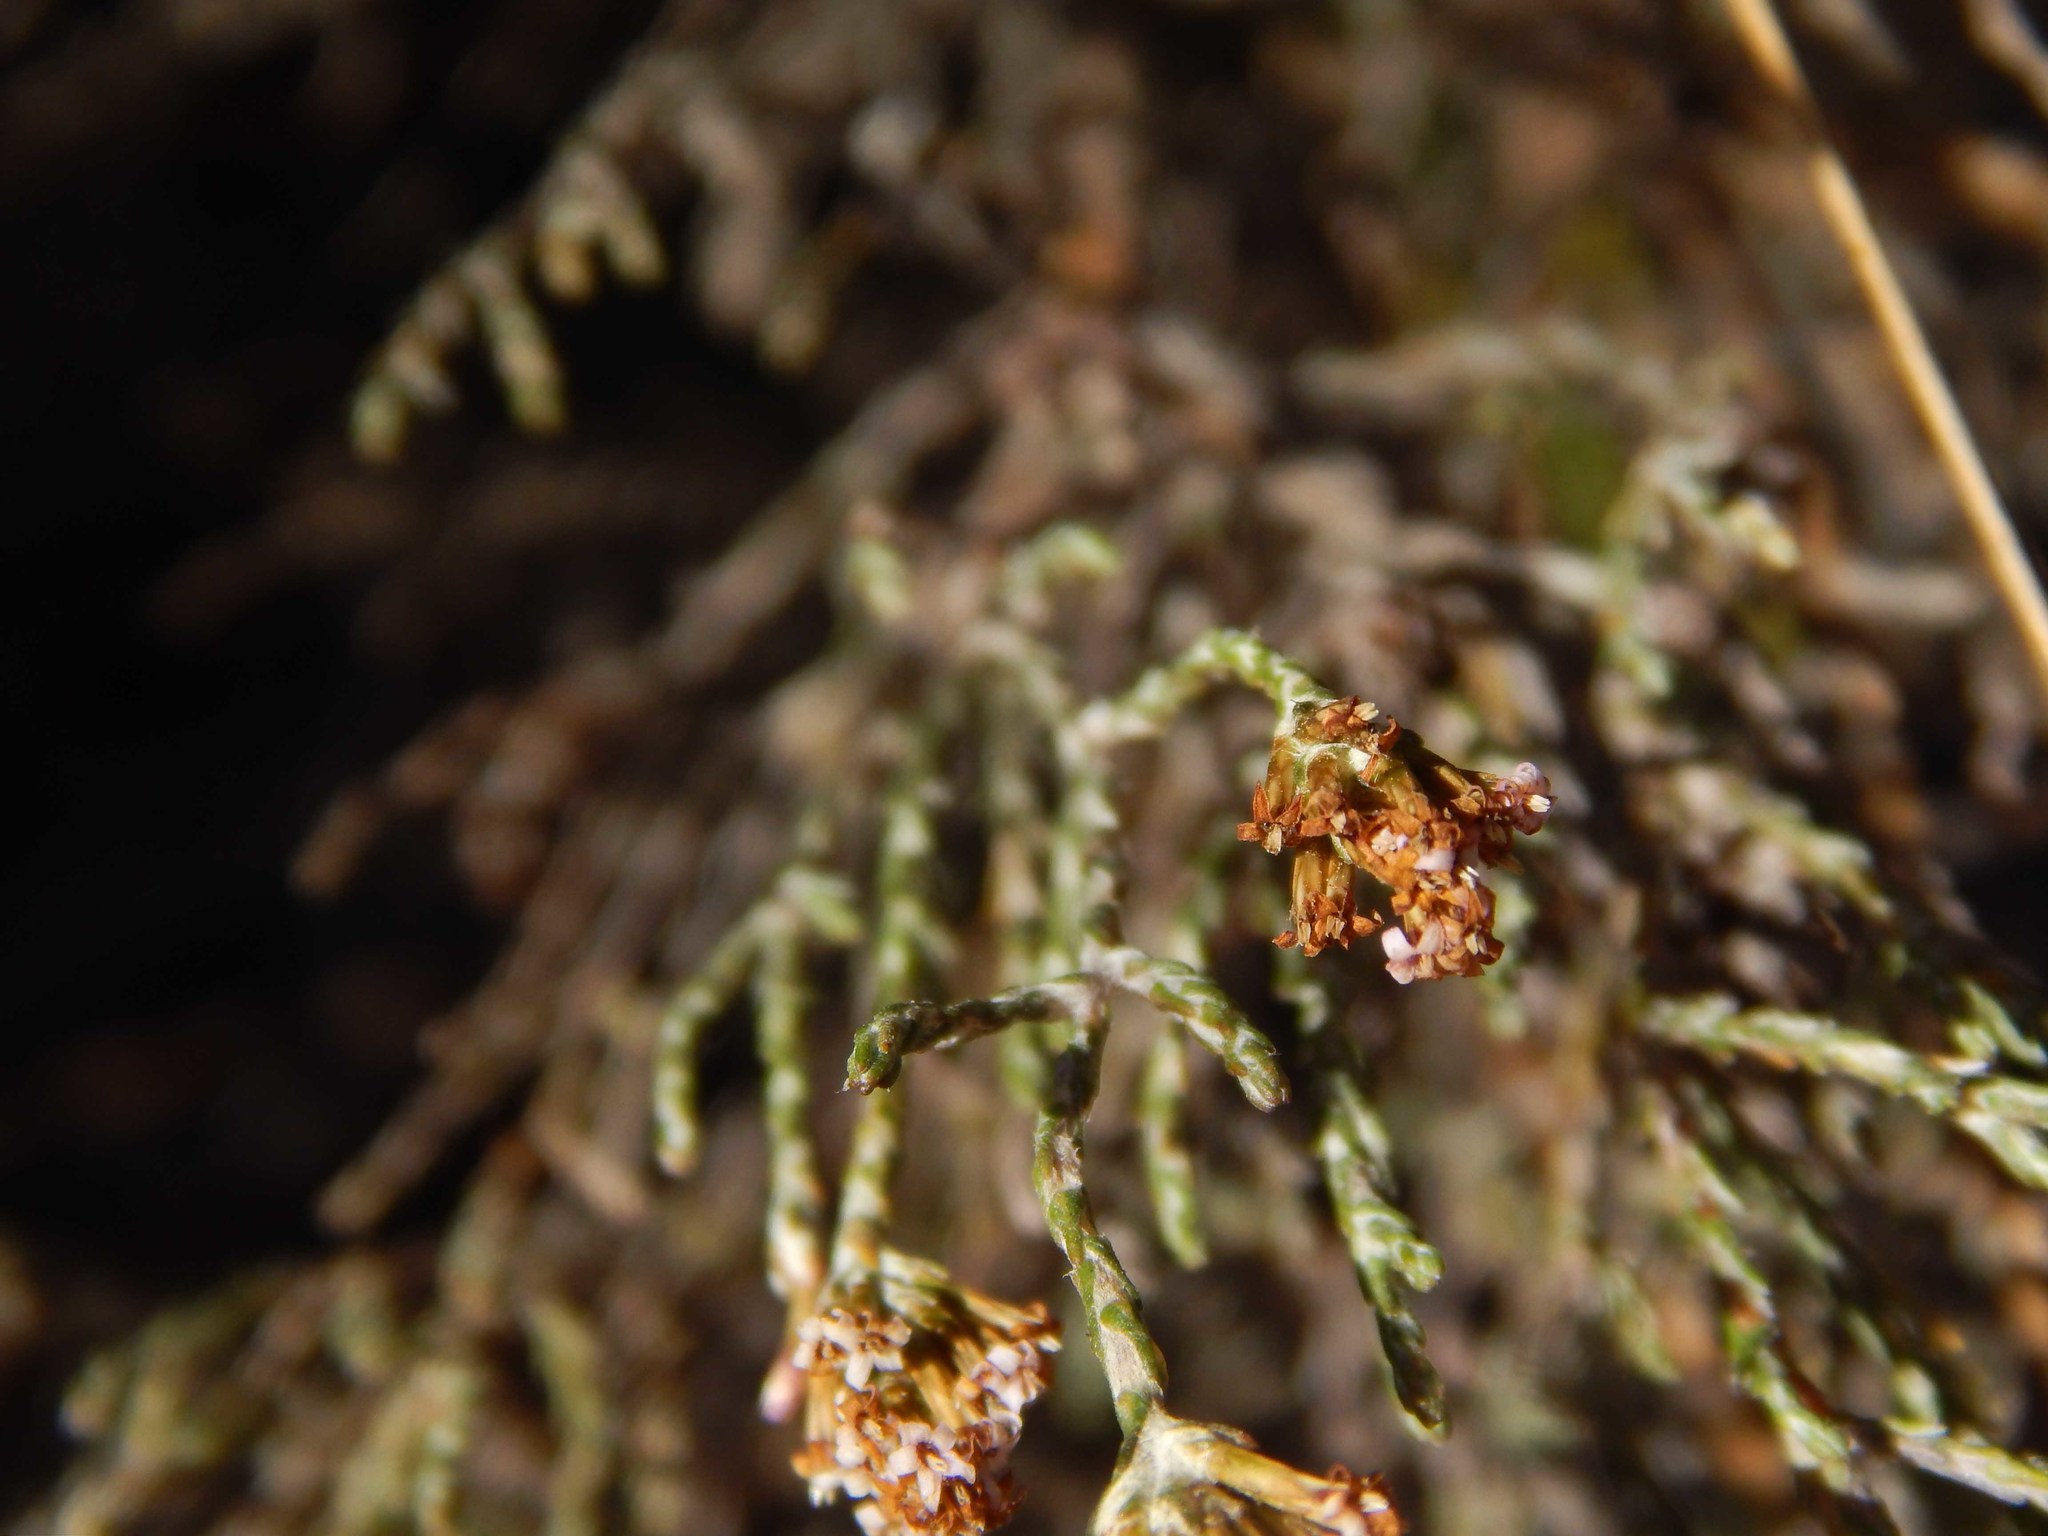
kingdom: Plantae
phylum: Tracheophyta
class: Magnoliopsida
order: Asterales
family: Asteraceae
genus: Stoebe
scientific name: Stoebe capitata
